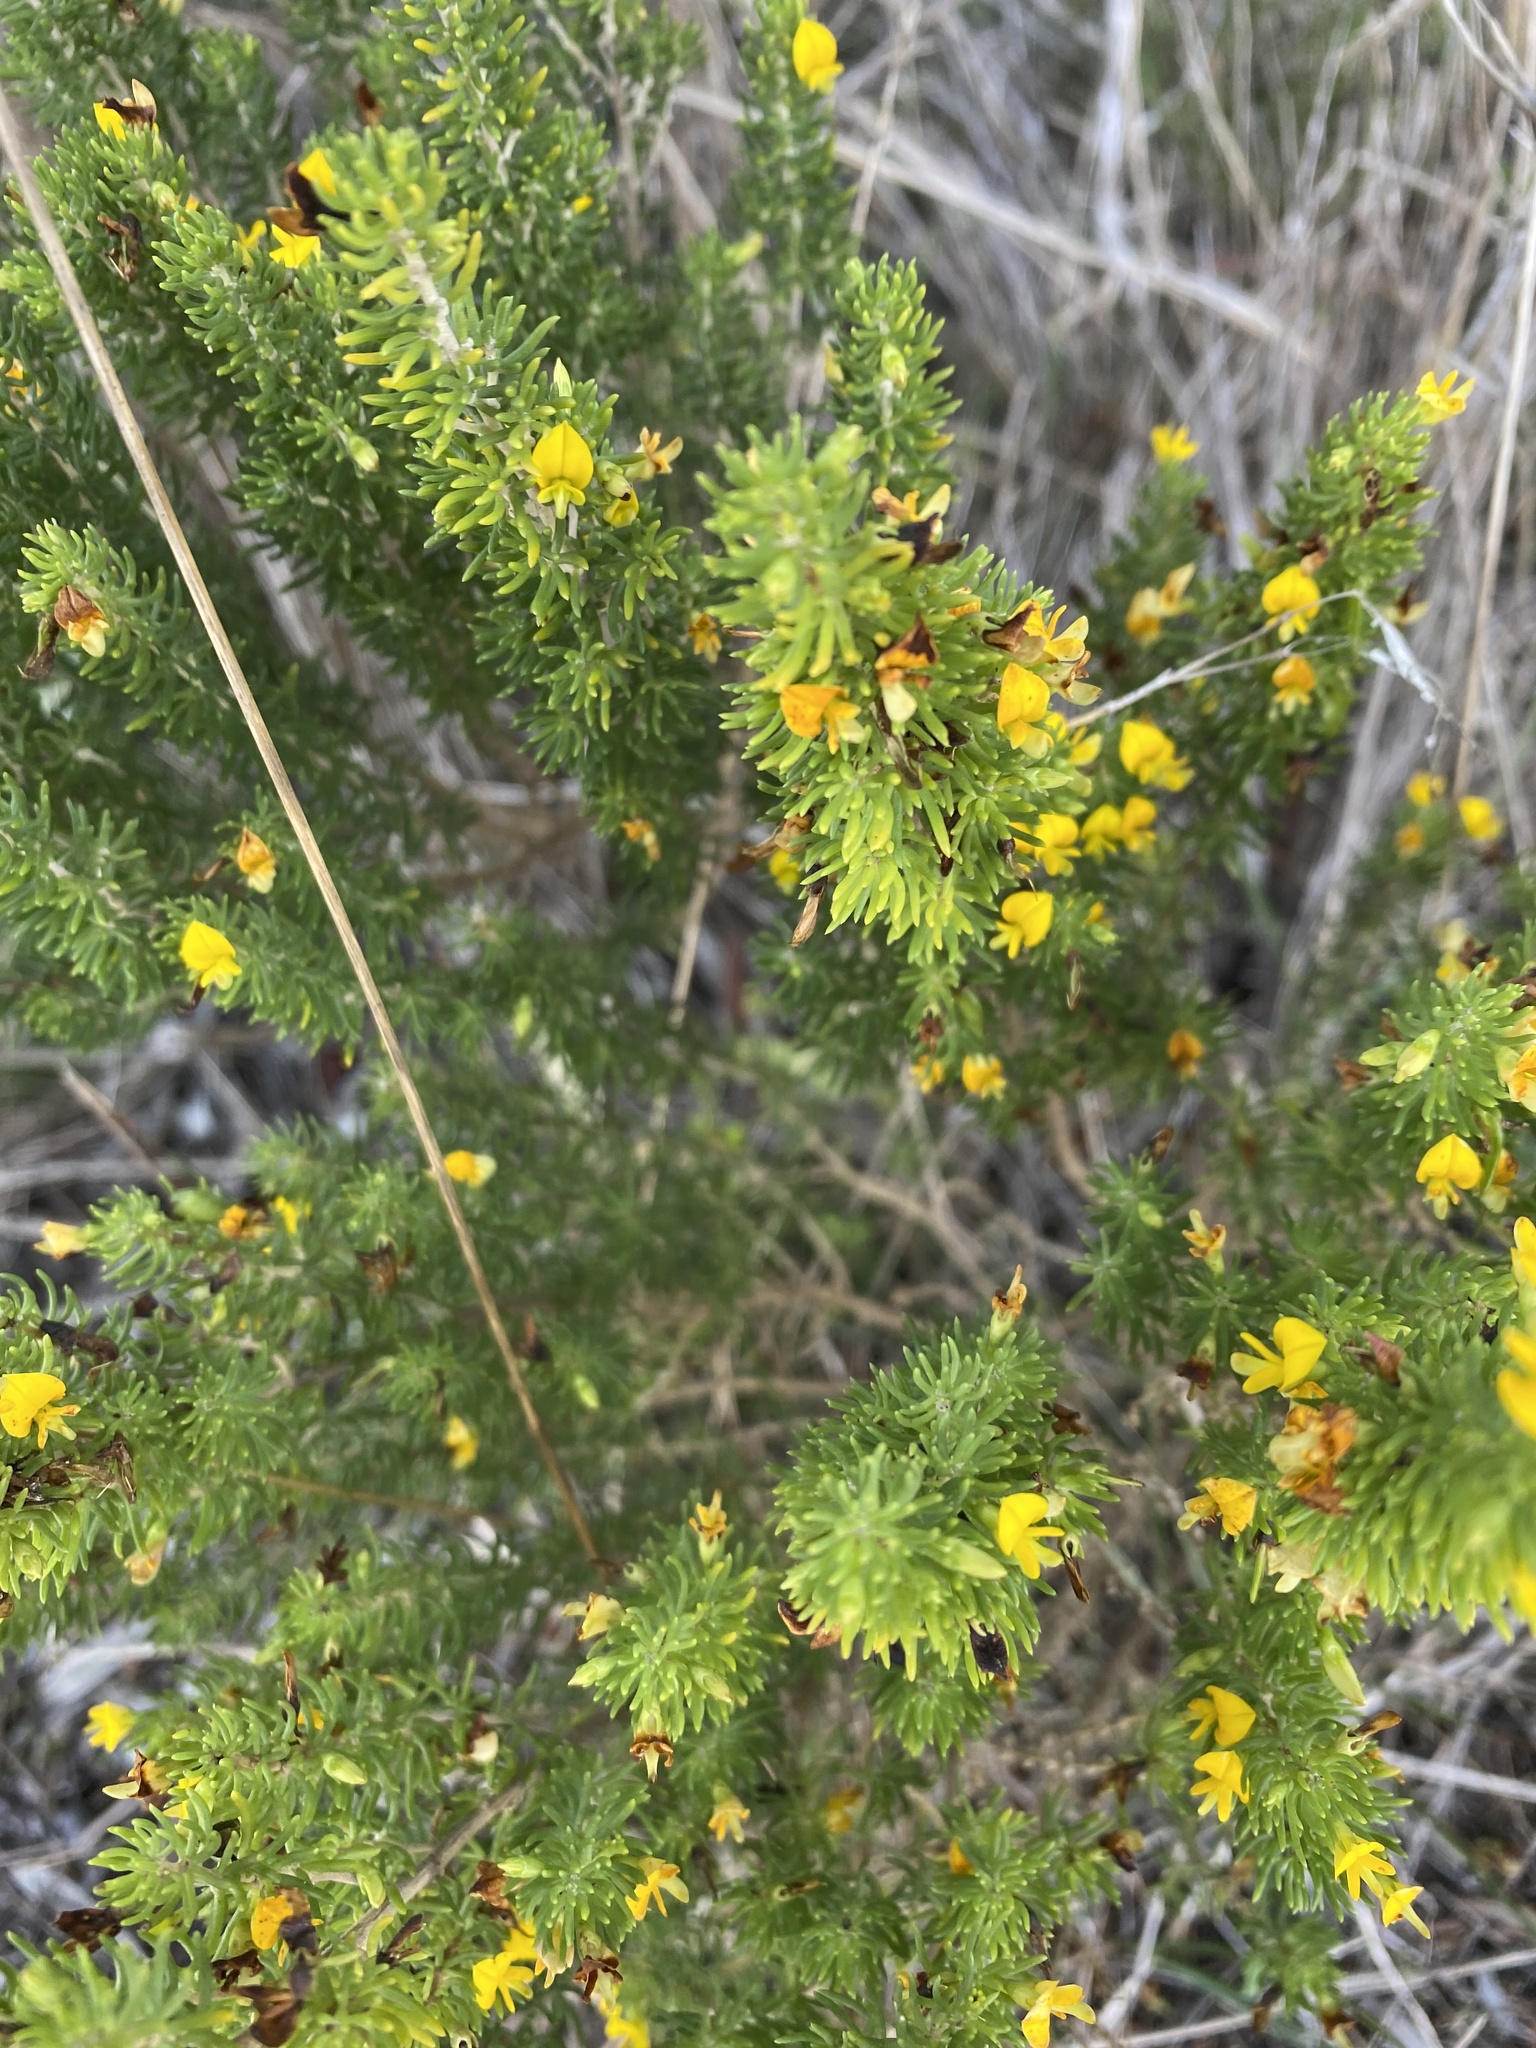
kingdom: Plantae
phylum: Tracheophyta
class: Magnoliopsida
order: Fabales
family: Fabaceae
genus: Aspalathus
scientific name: Aspalathus sanguinea
